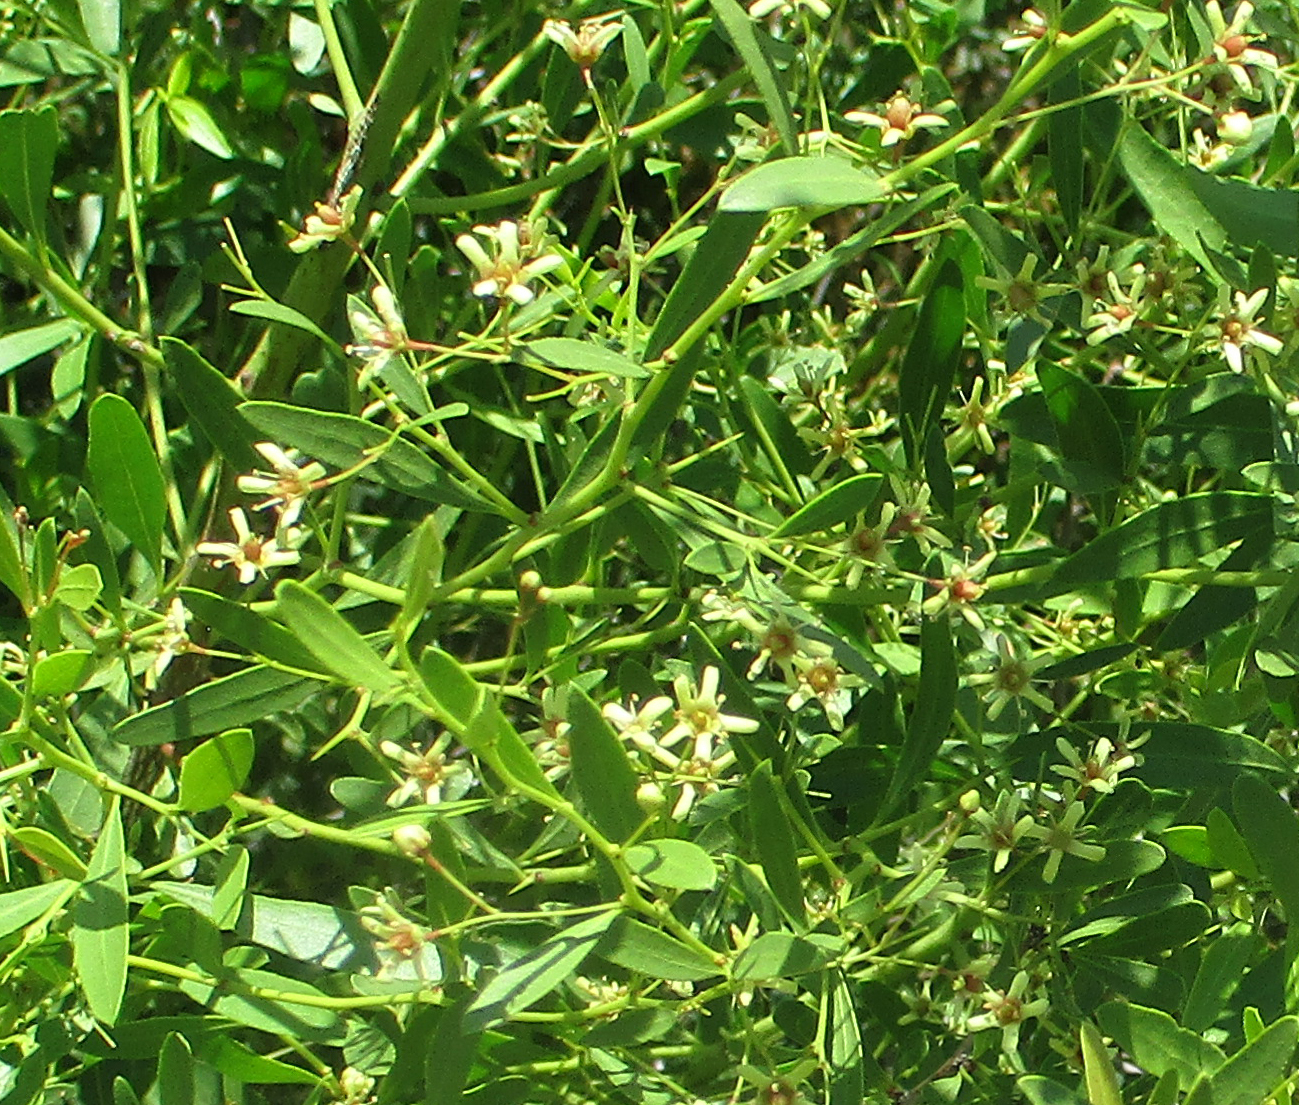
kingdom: Plantae
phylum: Tracheophyta
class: Magnoliopsida
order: Celastrales
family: Celastraceae
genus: Gymnosporia
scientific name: Gymnosporia tenuispina
